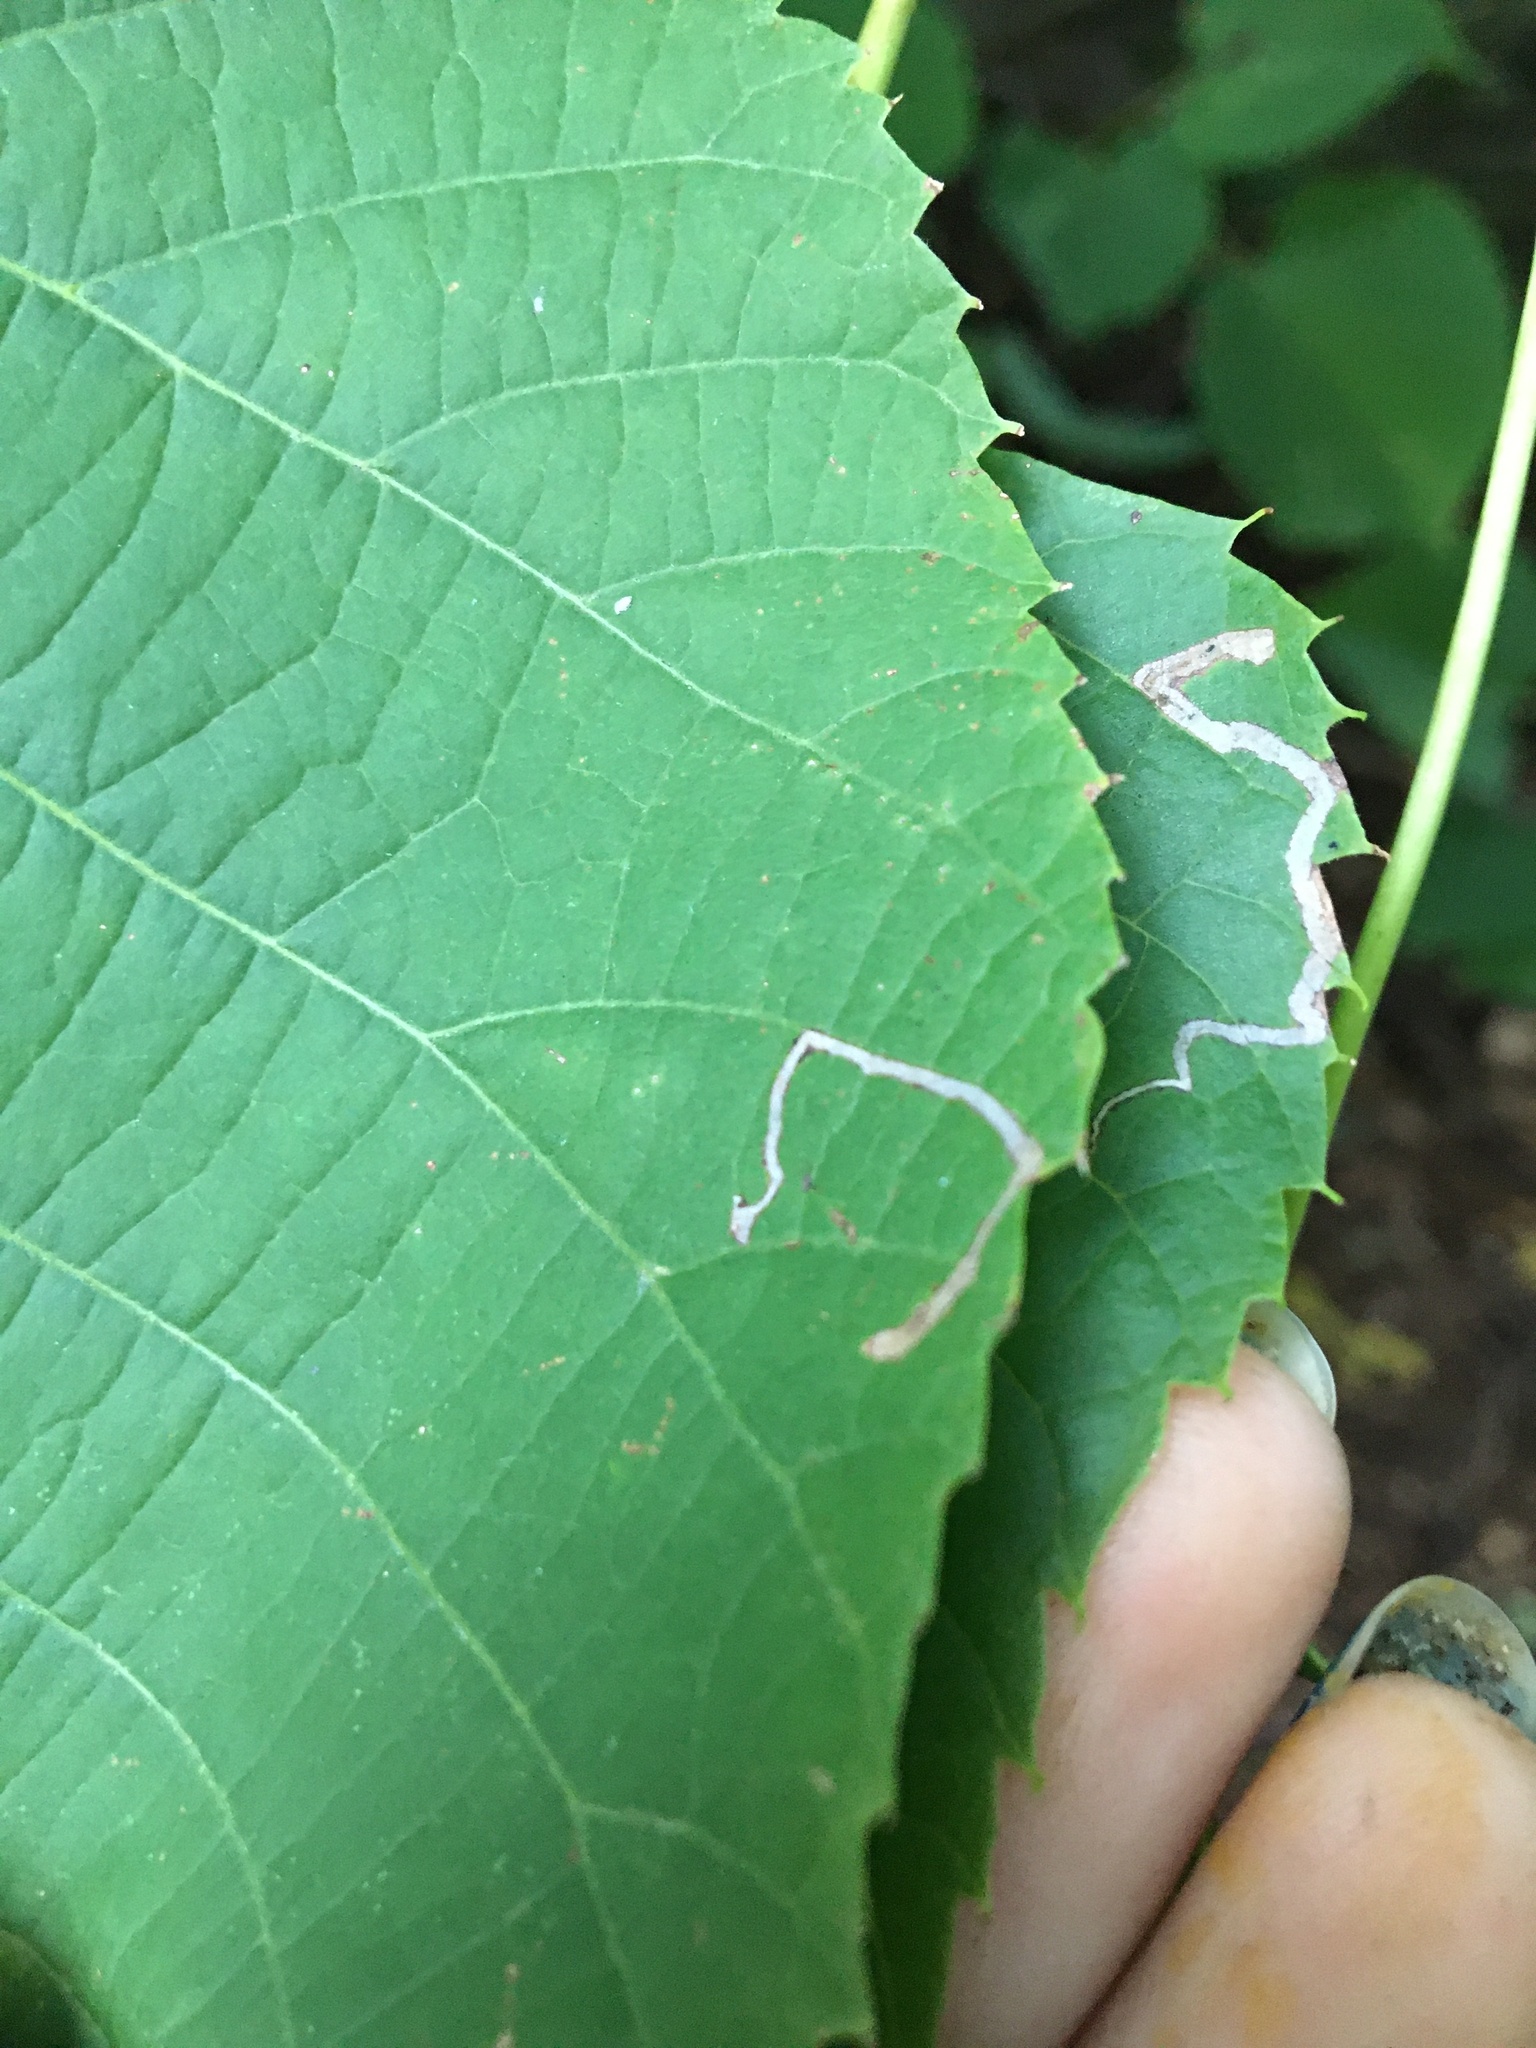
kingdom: Animalia
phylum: Arthropoda
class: Insecta
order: Lepidoptera
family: Nepticulidae
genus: Stigmella
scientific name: Stigmella tiliella
